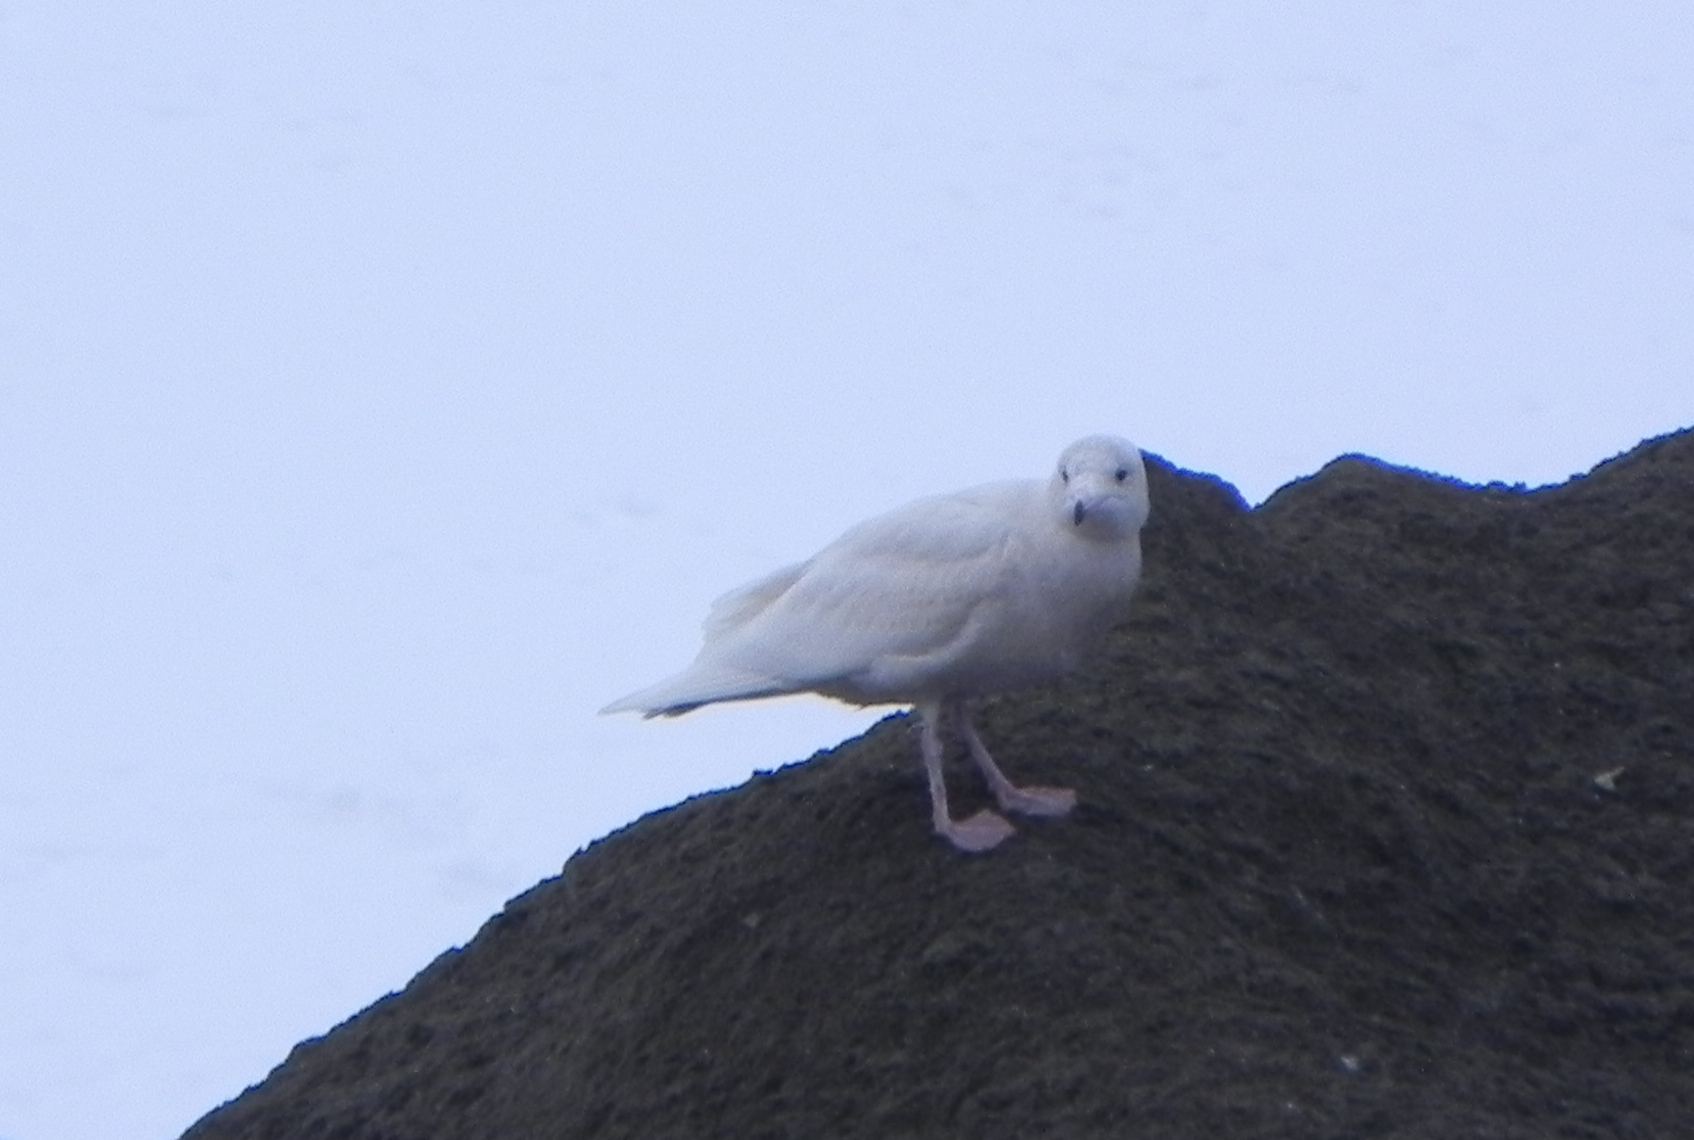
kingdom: Animalia
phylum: Chordata
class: Aves
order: Charadriiformes
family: Laridae
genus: Larus
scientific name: Larus hyperboreus
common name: Glaucous gull
